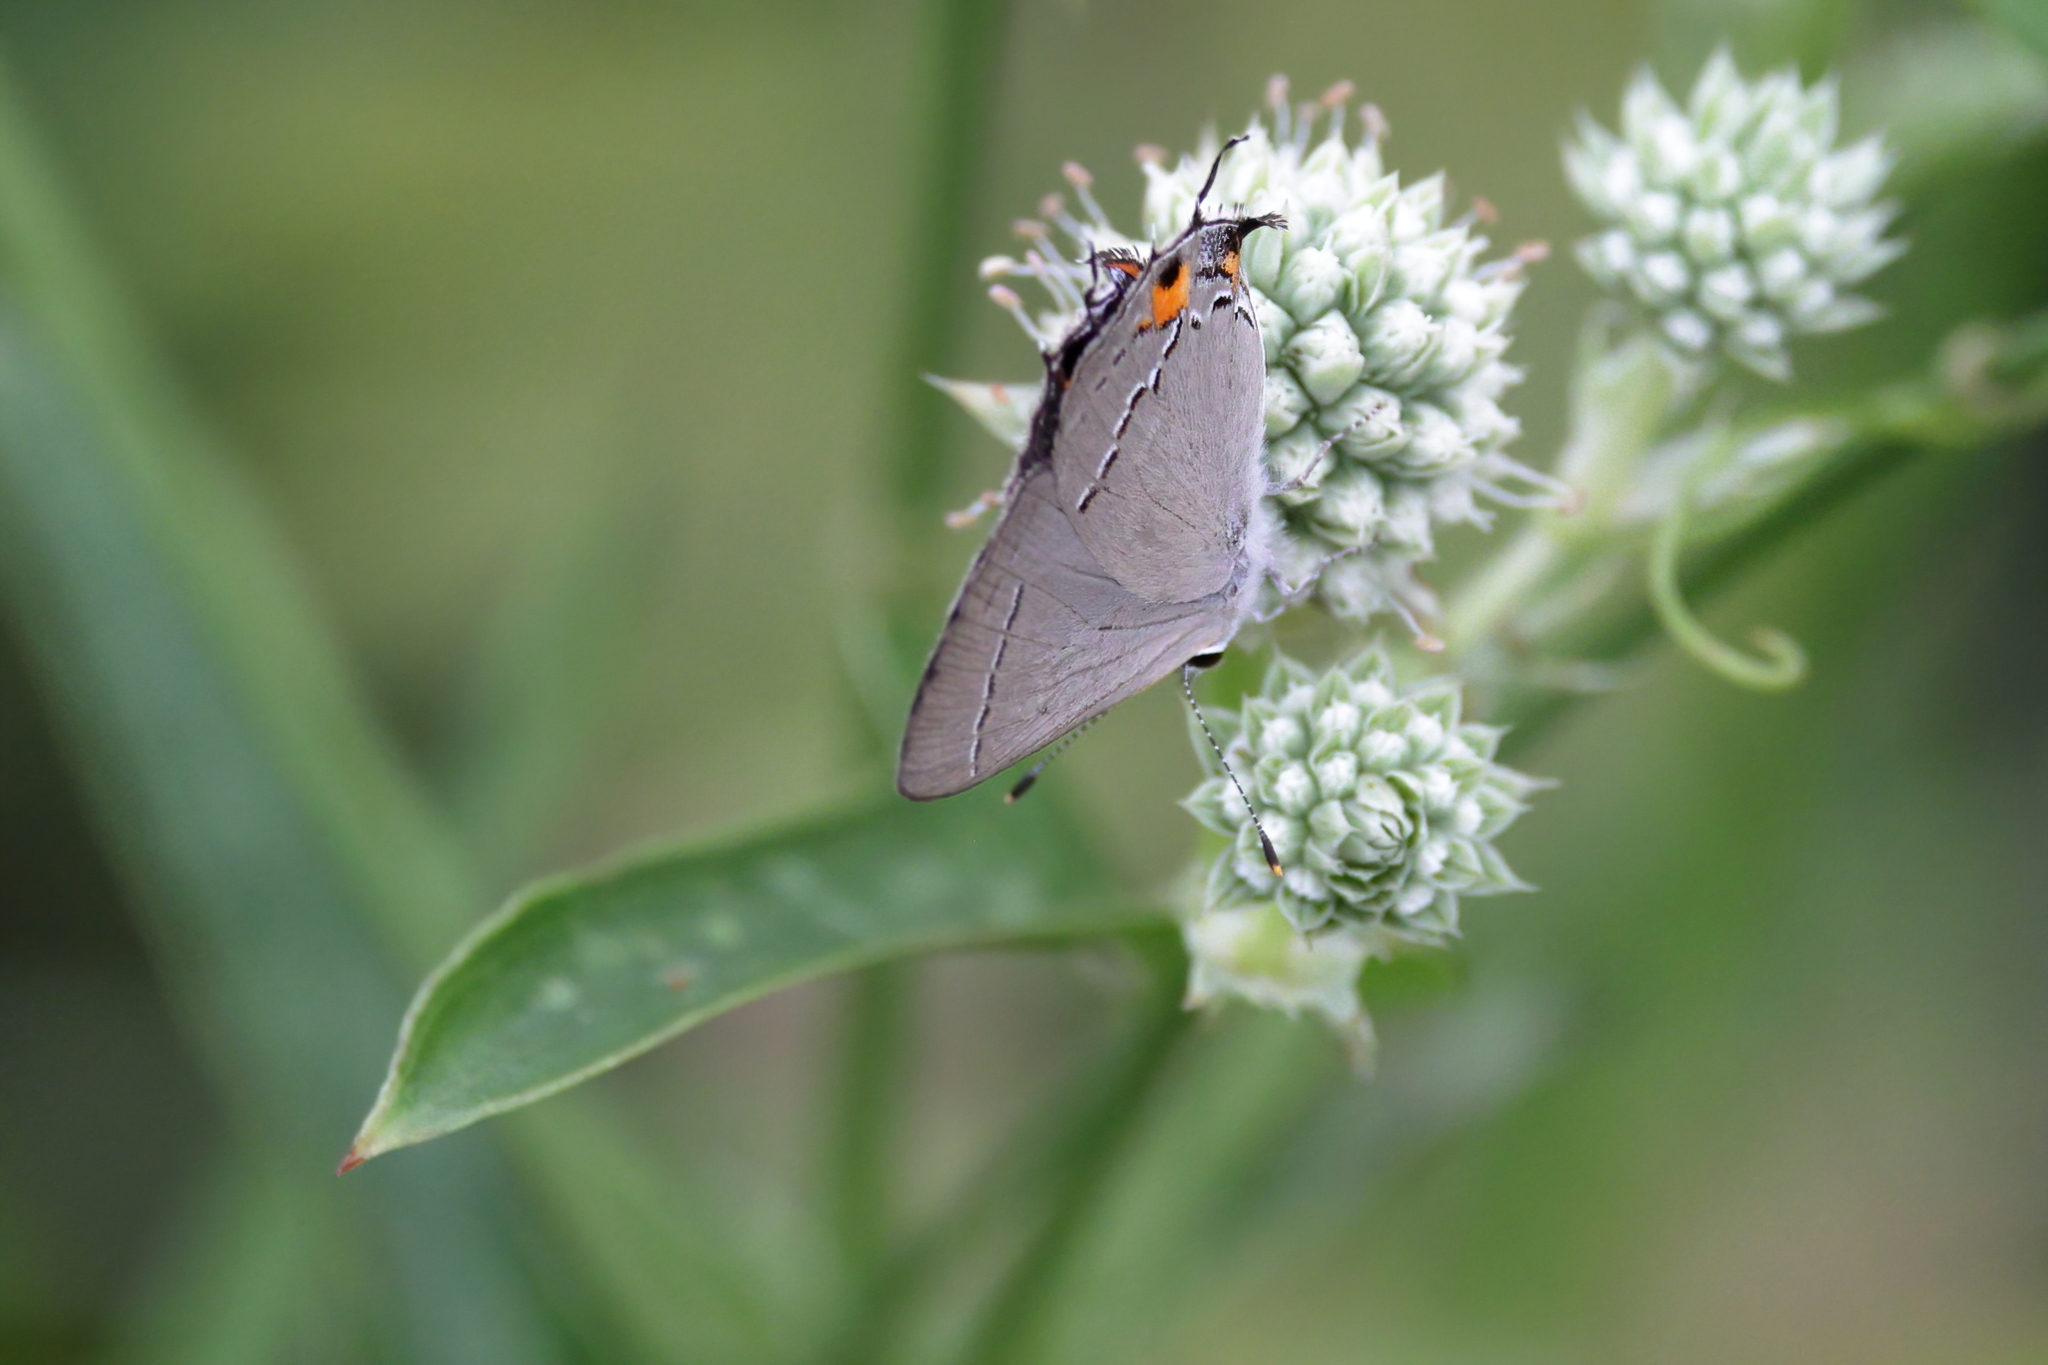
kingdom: Animalia
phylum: Arthropoda
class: Insecta
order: Lepidoptera
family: Lycaenidae
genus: Strymon
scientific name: Strymon melinus
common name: Gray hairstreak
